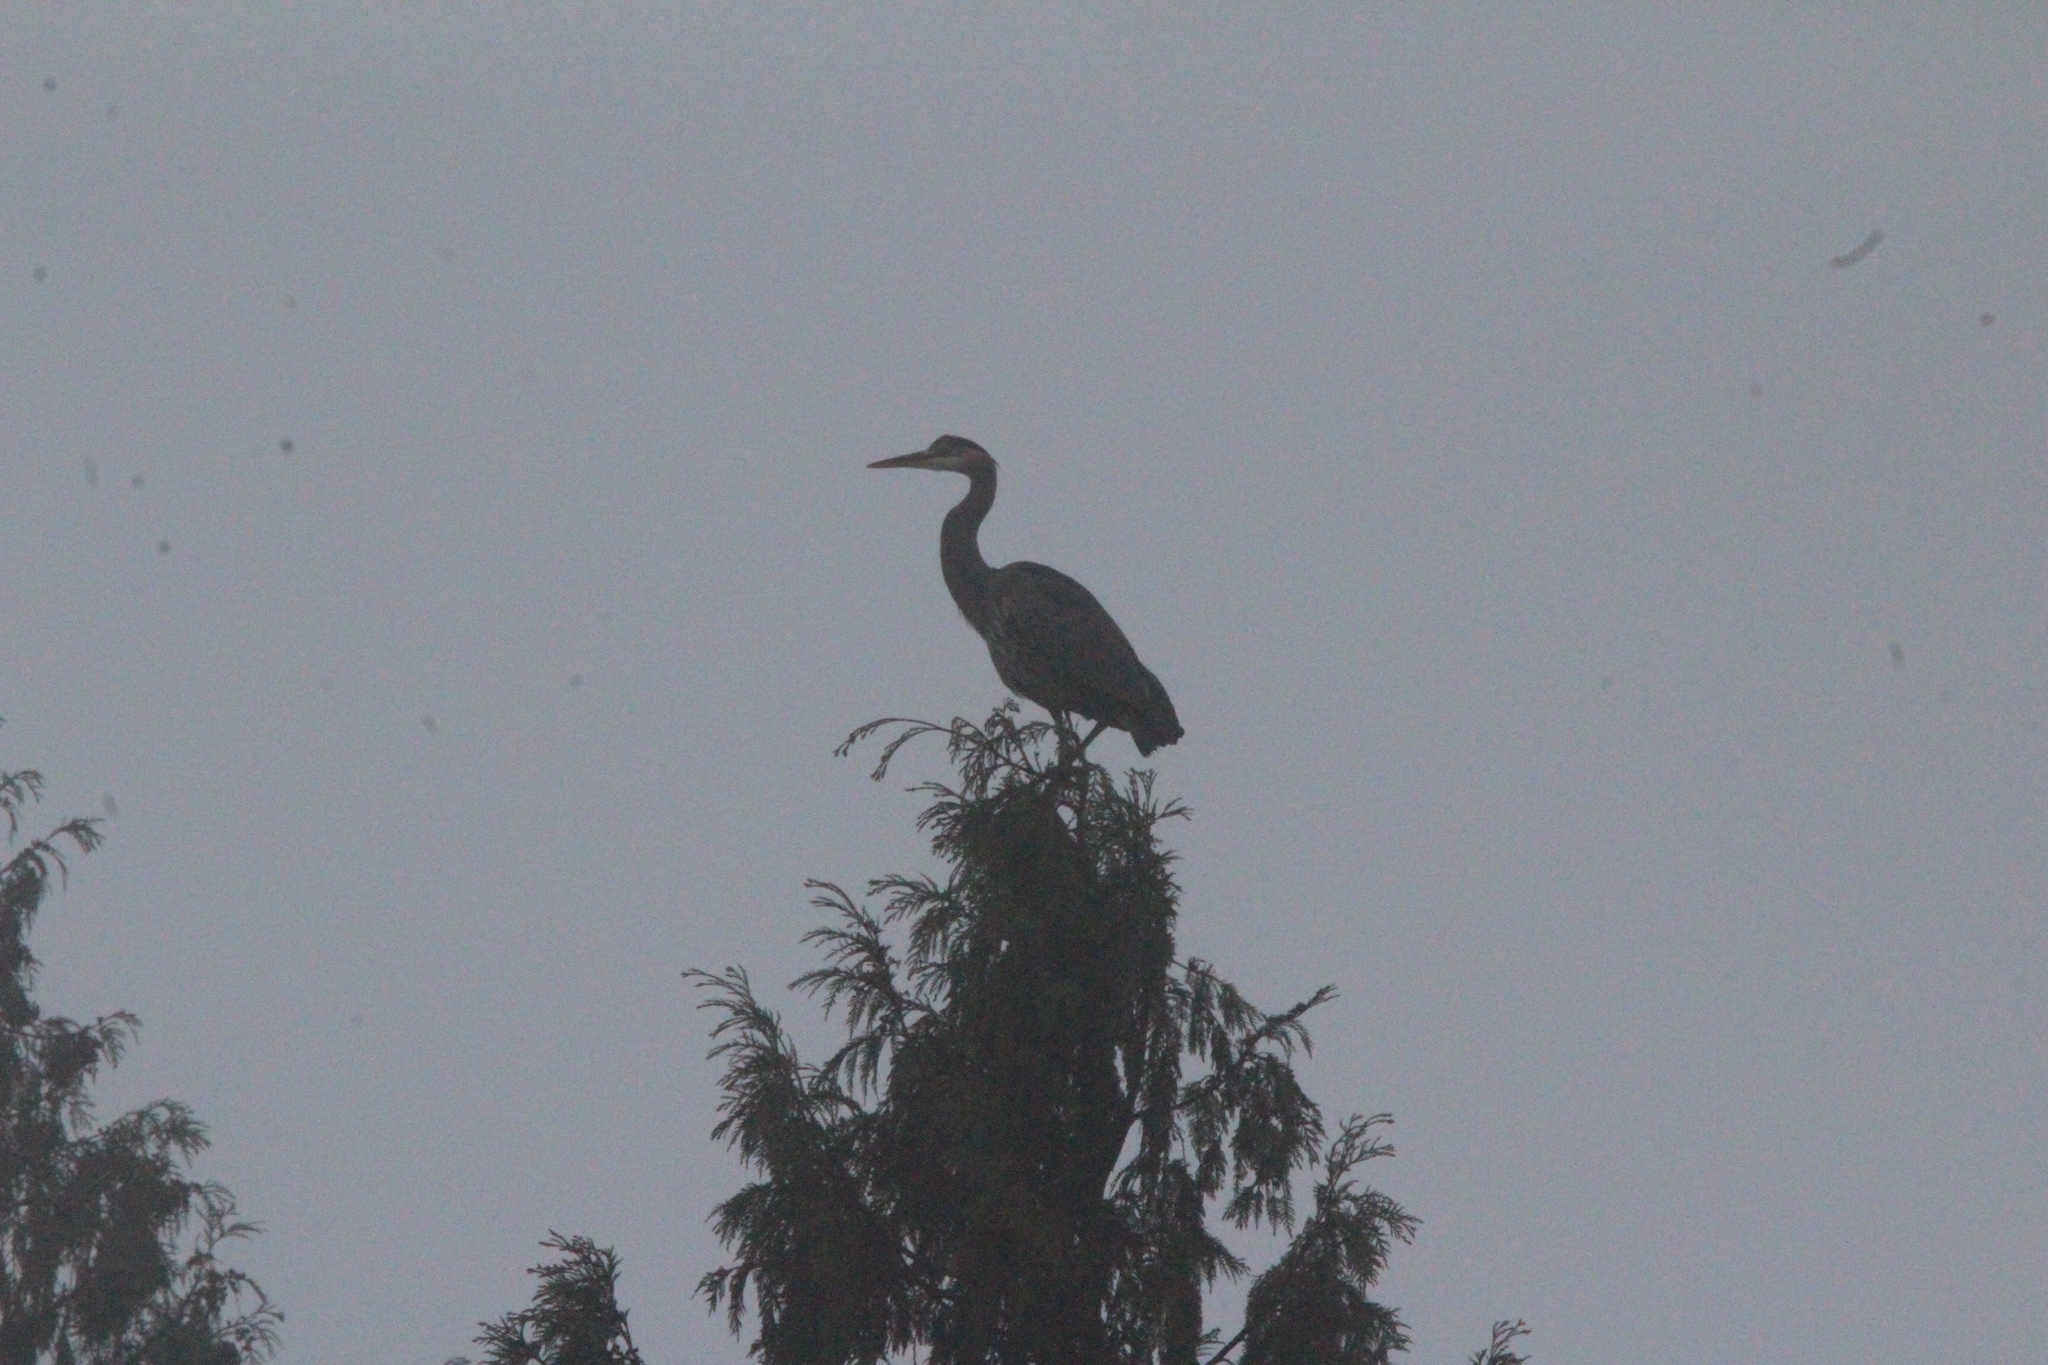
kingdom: Animalia
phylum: Chordata
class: Aves
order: Pelecaniformes
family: Ardeidae
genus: Ardea
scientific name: Ardea herodias
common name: Great blue heron
